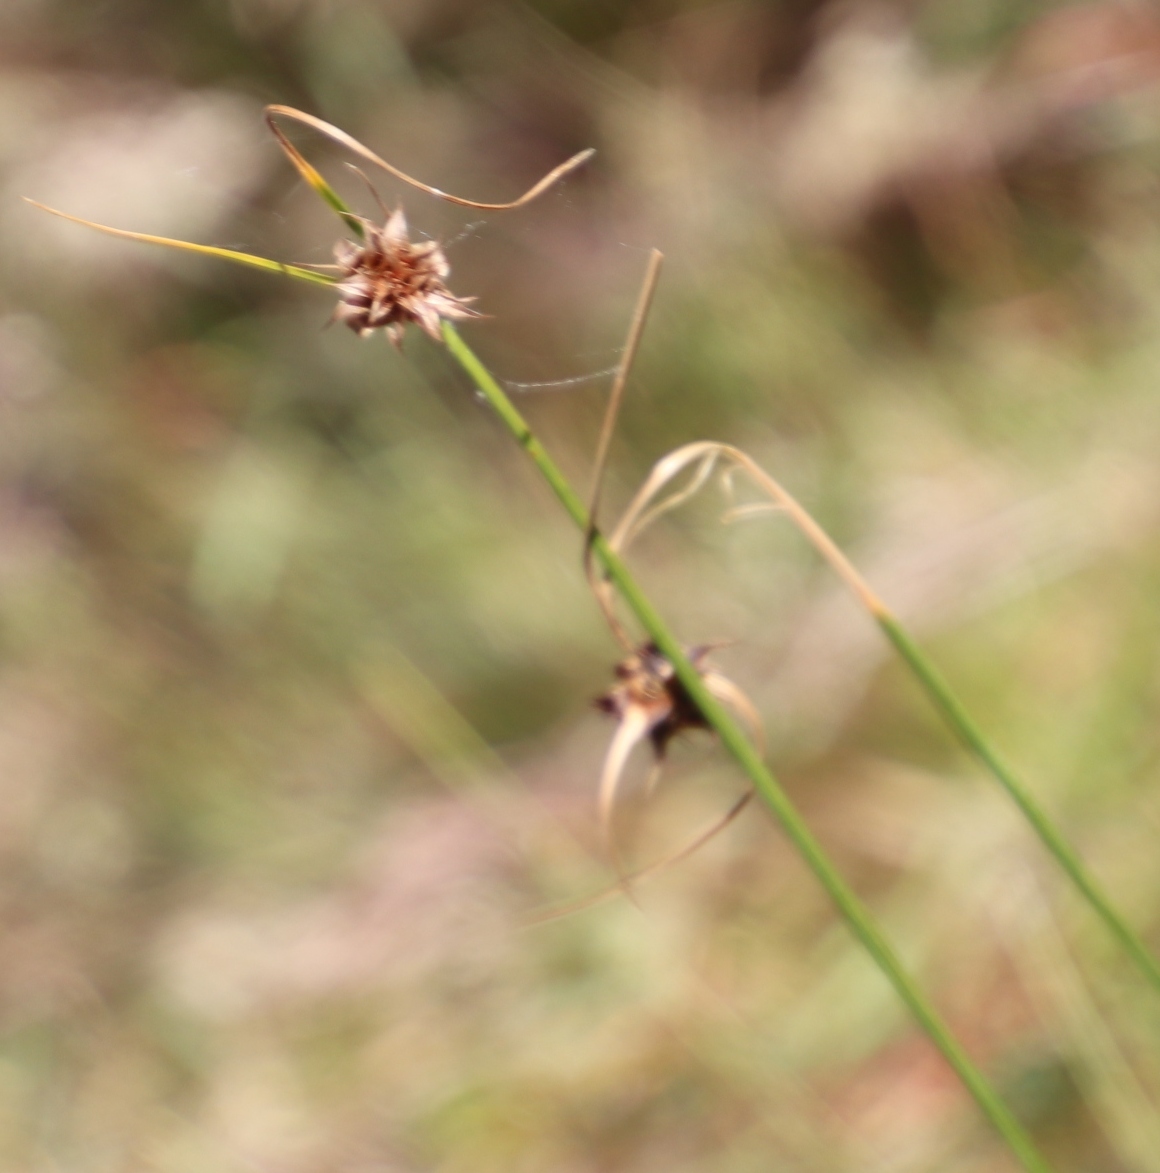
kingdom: Plantae
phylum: Tracheophyta
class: Liliopsida
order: Poales
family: Cyperaceae
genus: Ficinia
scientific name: Ficinia nigrescens
